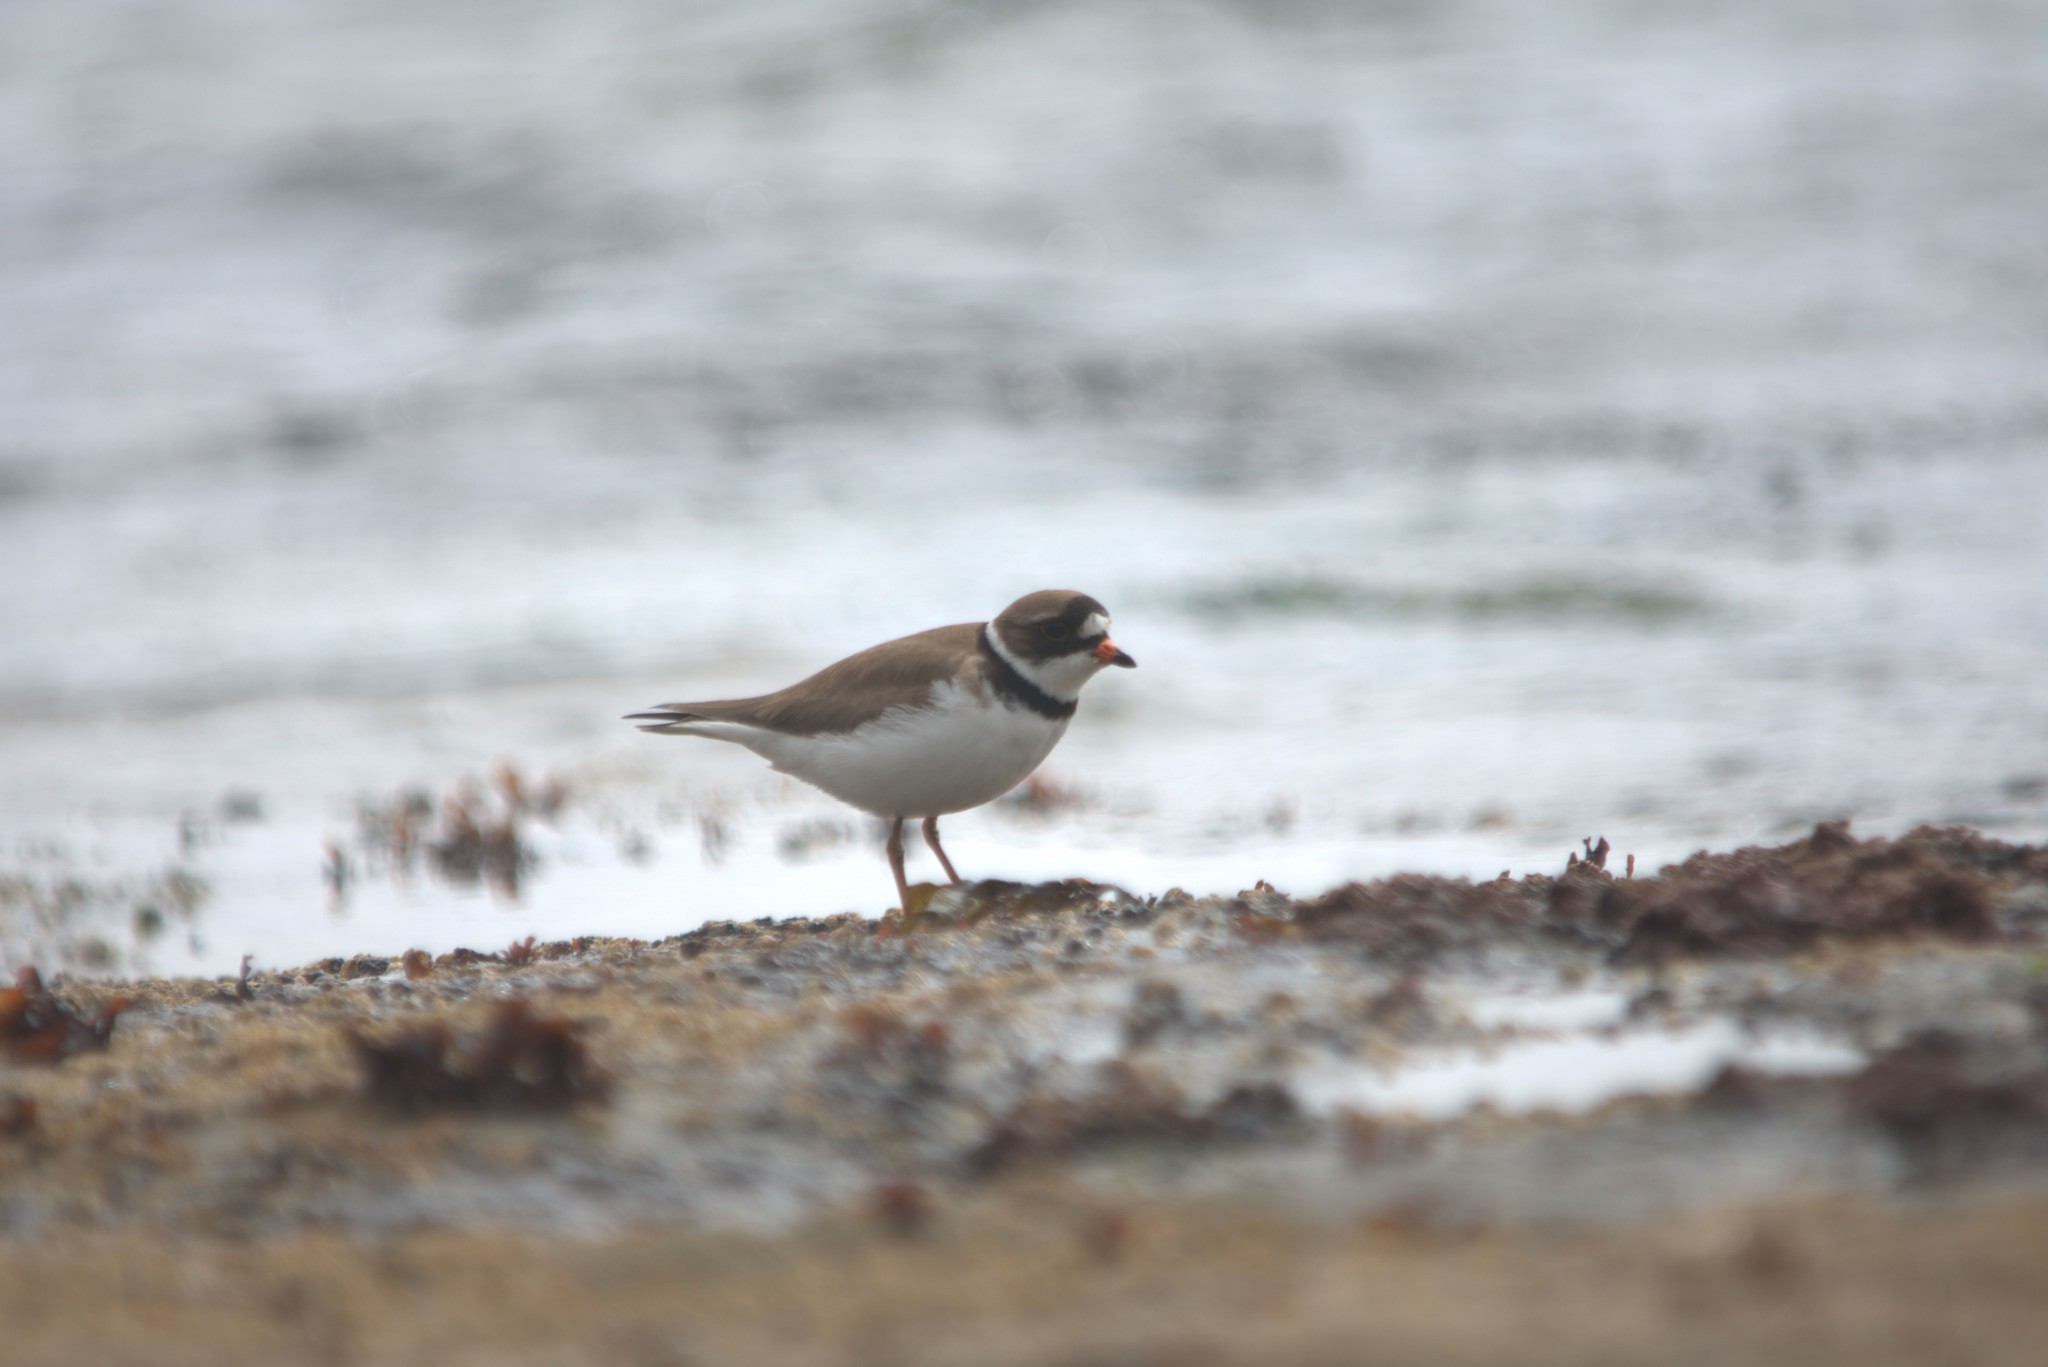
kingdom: Animalia
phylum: Chordata
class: Aves
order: Charadriiformes
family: Charadriidae
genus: Charadrius
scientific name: Charadrius semipalmatus
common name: Semipalmated plover
